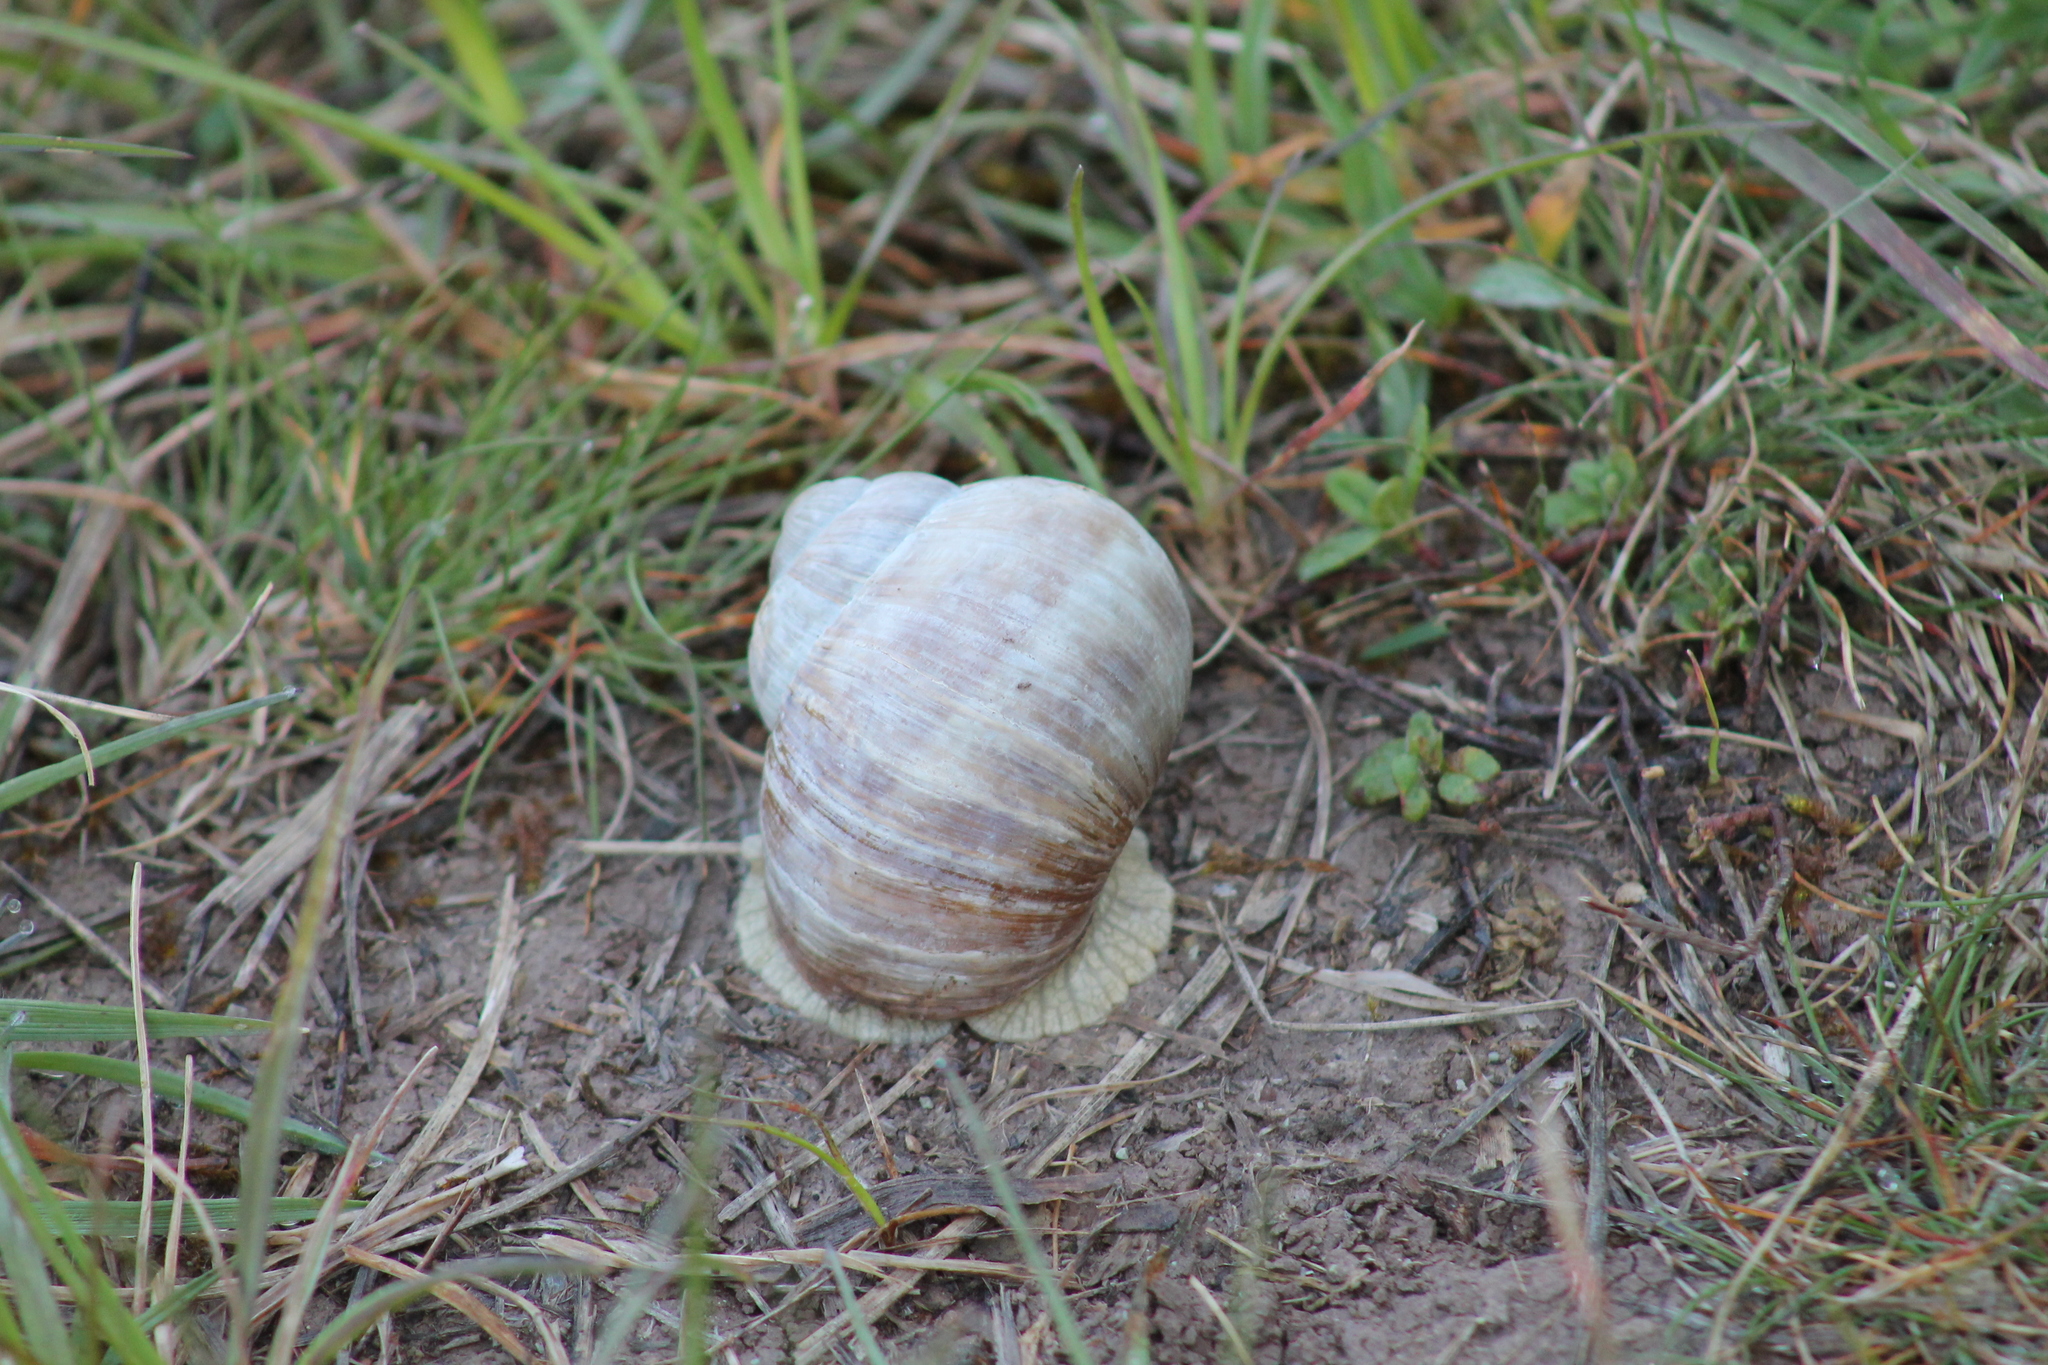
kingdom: Animalia
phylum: Mollusca
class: Gastropoda
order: Stylommatophora
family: Helicidae
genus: Helix
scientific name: Helix pomatia
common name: Roman snail
